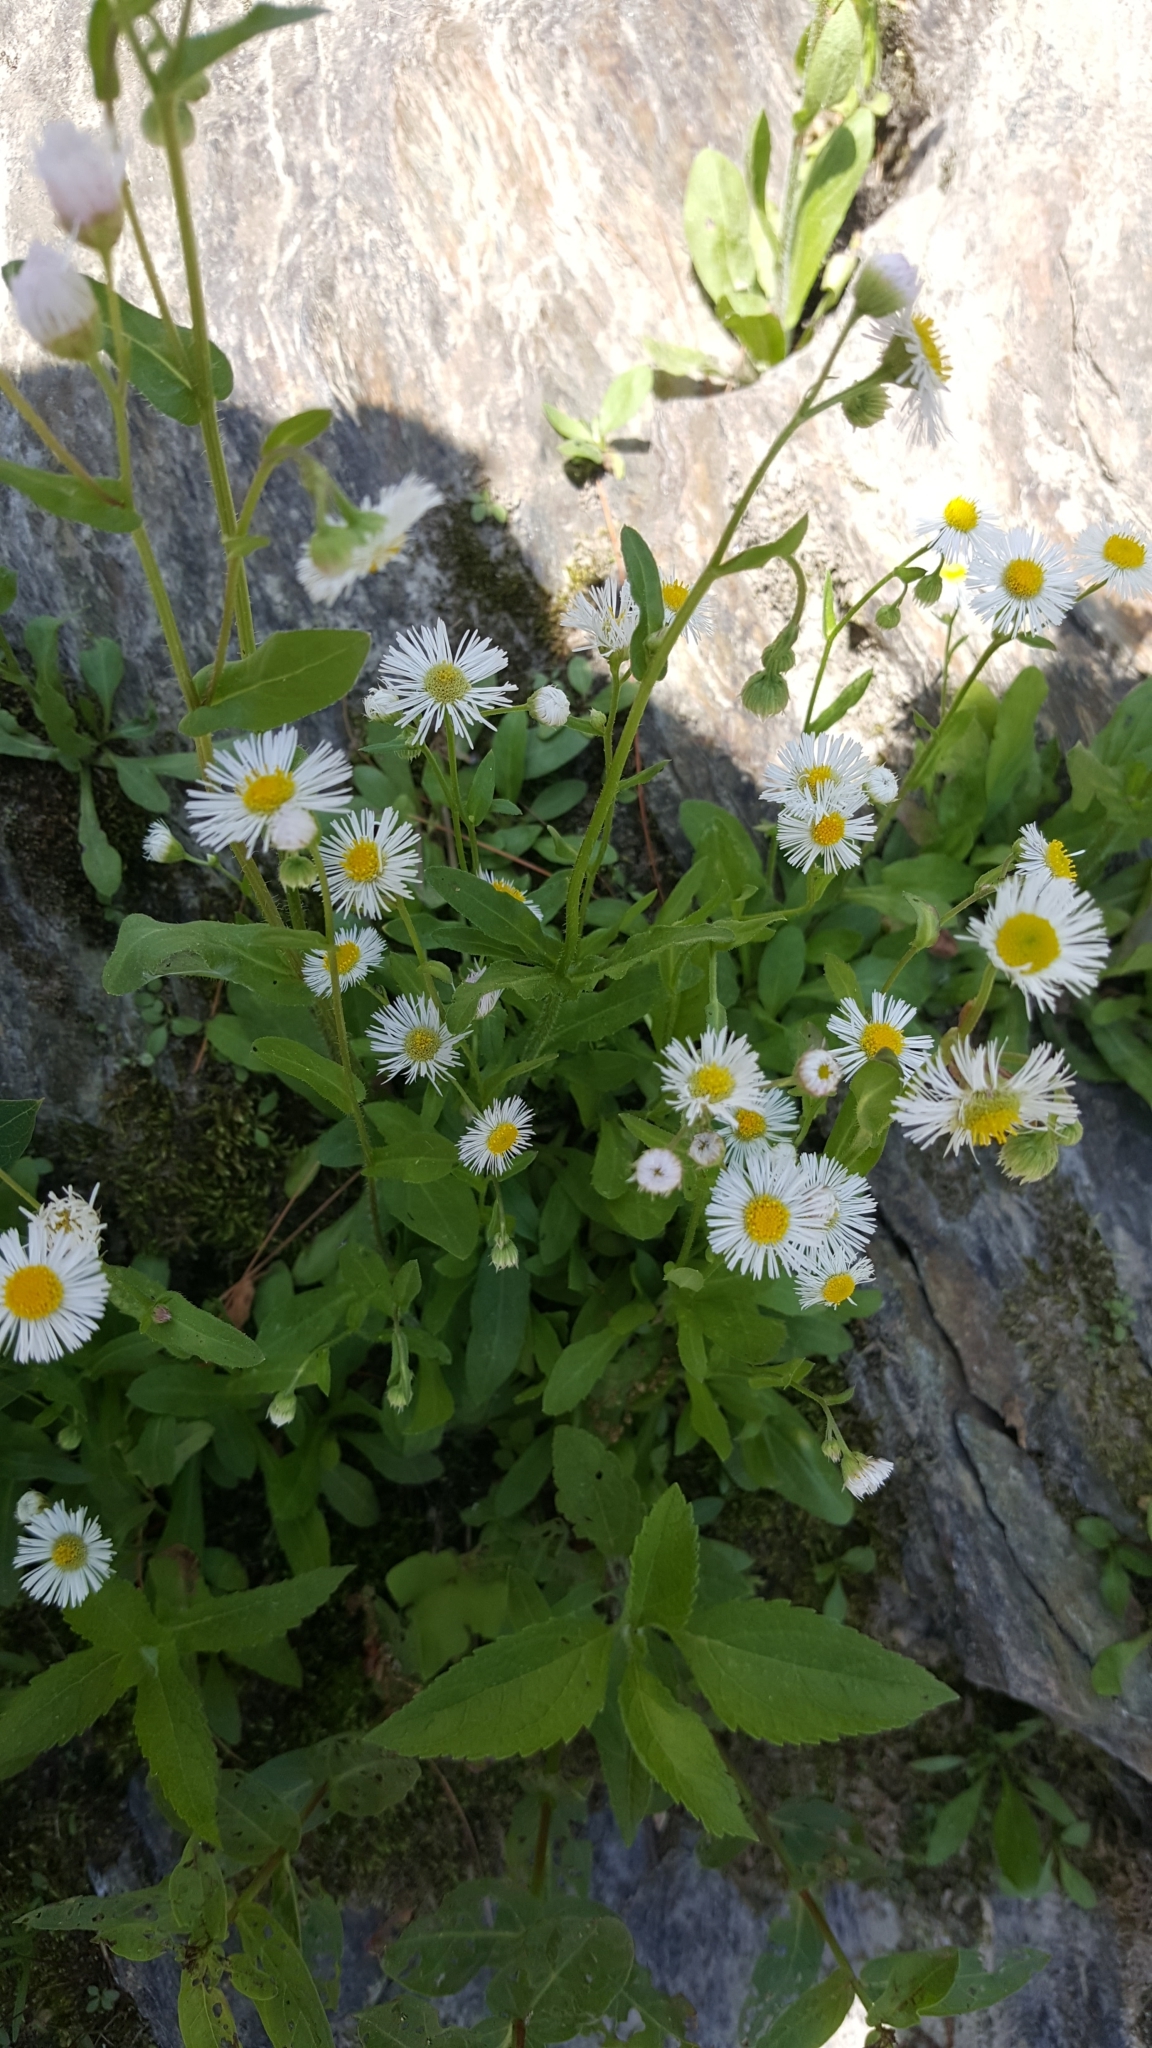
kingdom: Plantae
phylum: Tracheophyta
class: Magnoliopsida
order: Asterales
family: Asteraceae
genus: Erigeron
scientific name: Erigeron philadelphicus
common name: Robin's-plantain
